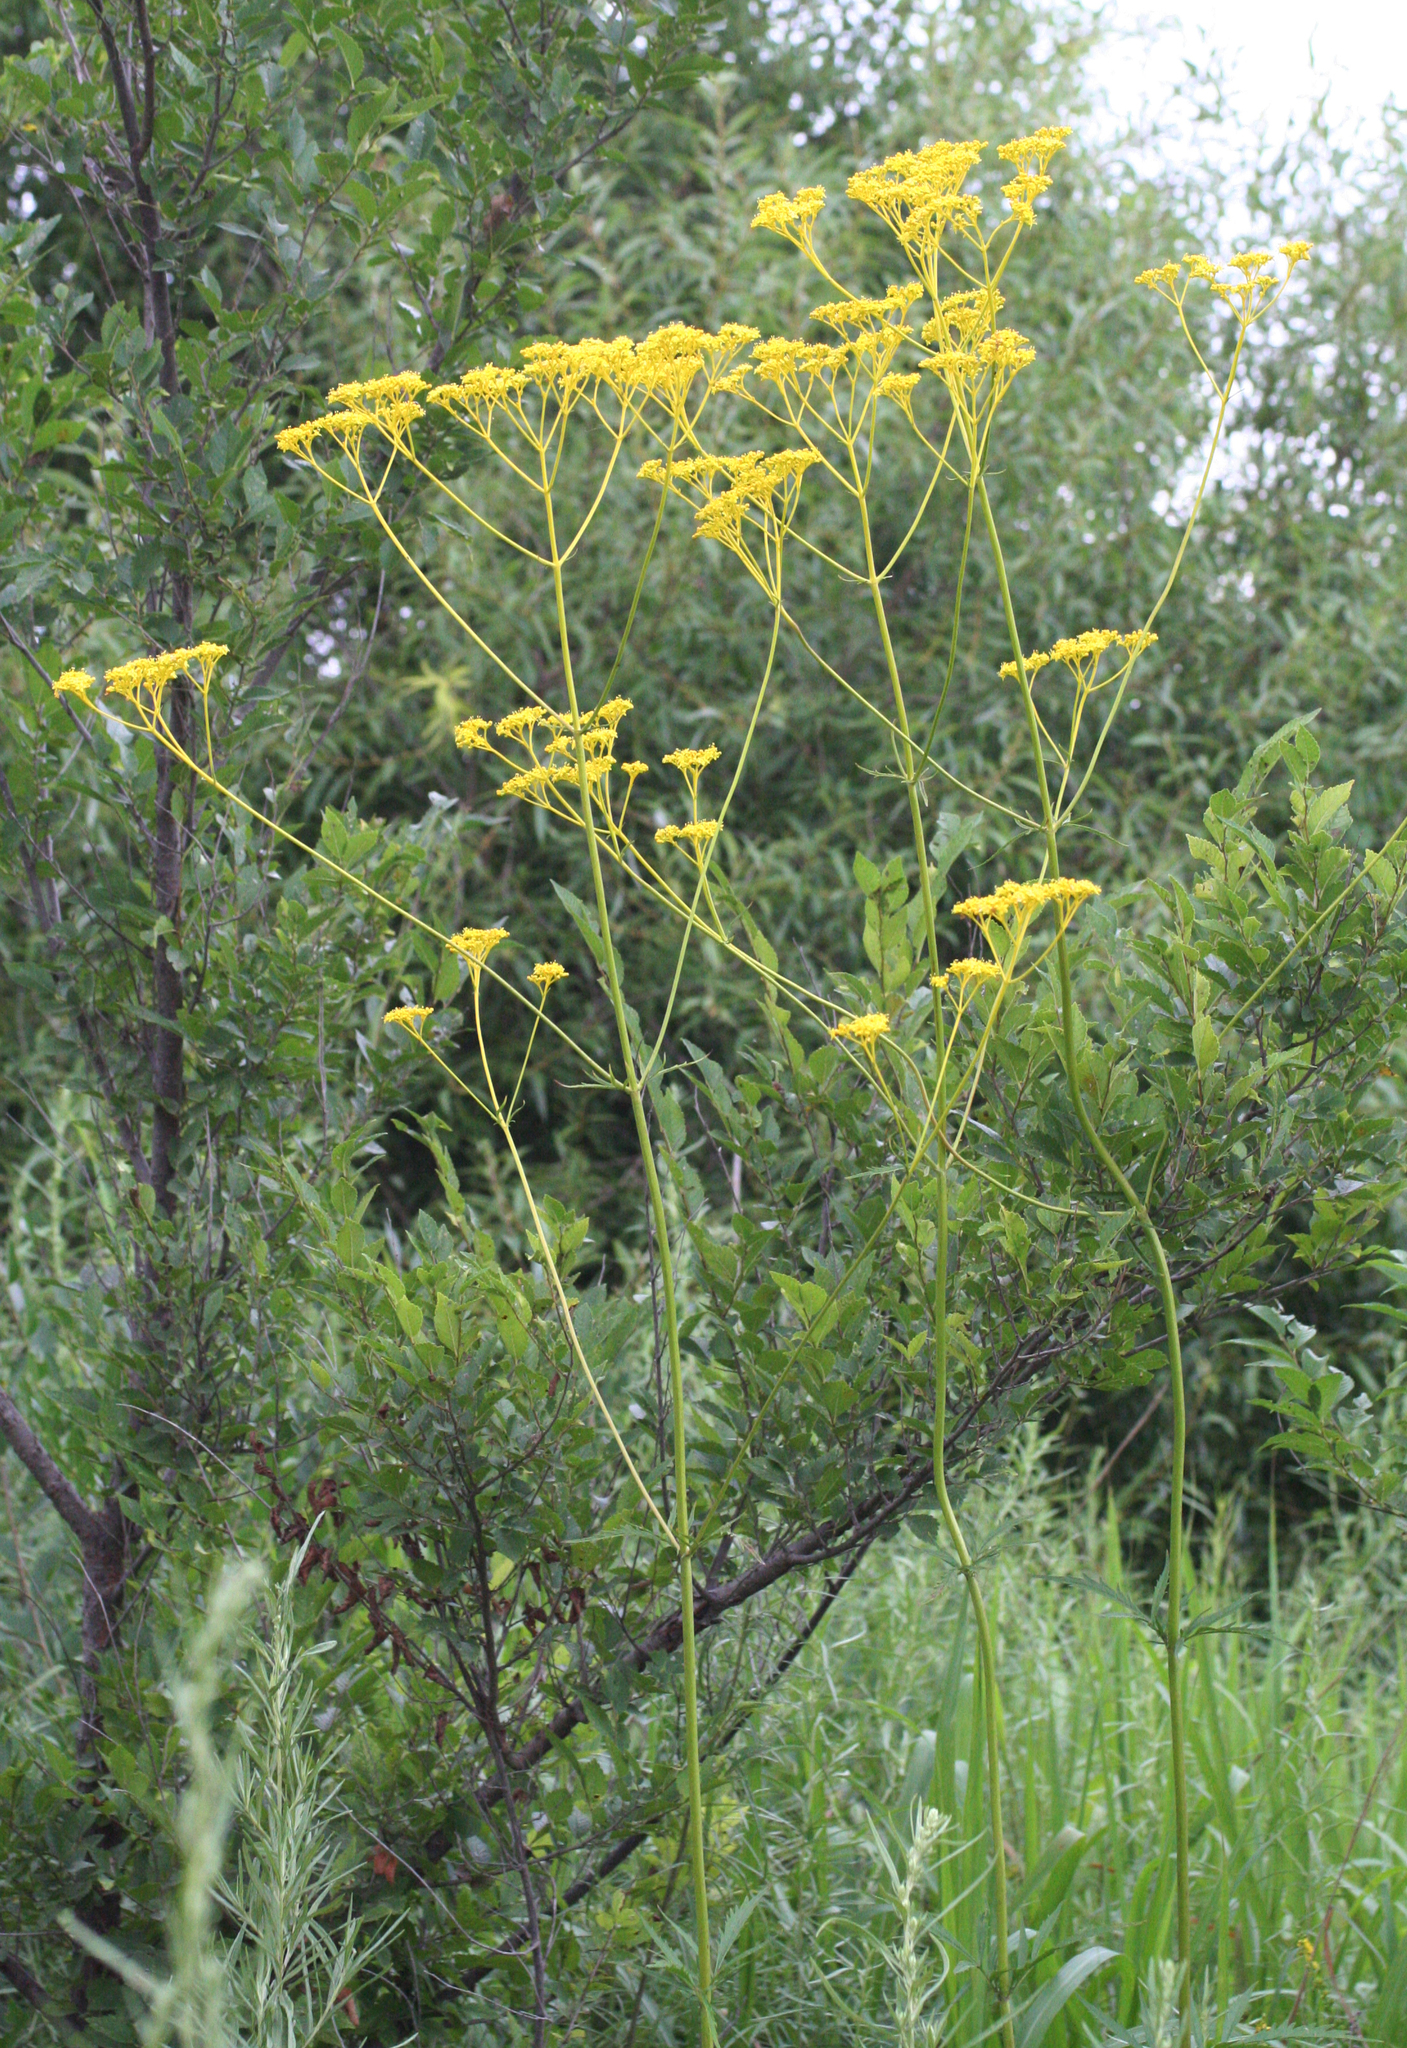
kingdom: Plantae
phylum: Tracheophyta
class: Magnoliopsida
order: Dipsacales
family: Caprifoliaceae
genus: Patrinia
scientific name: Patrinia scabiosifolia
